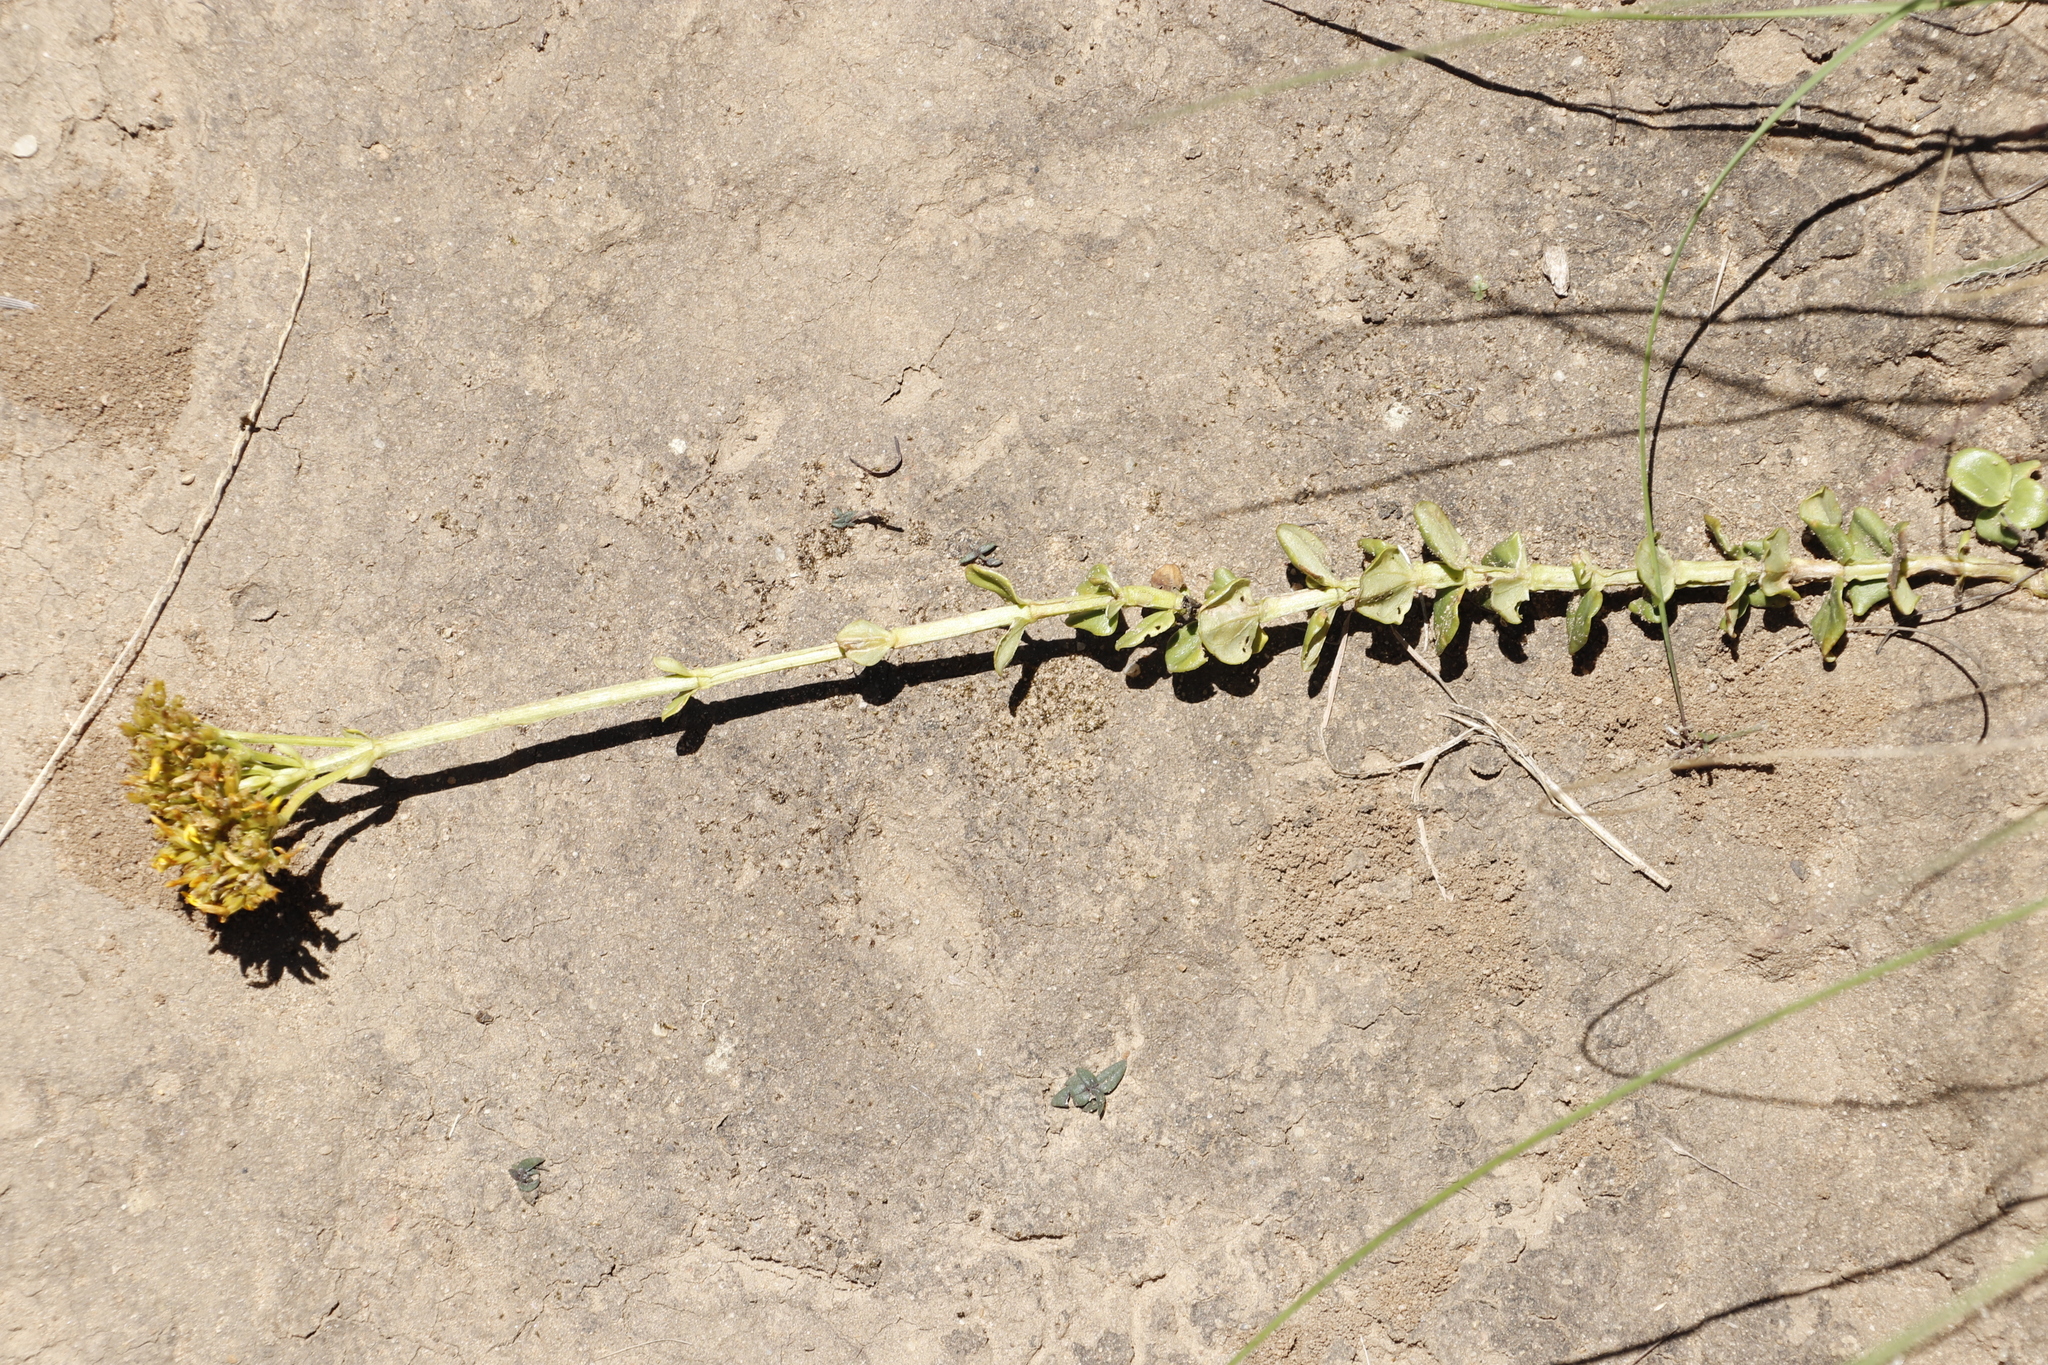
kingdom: Plantae
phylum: Tracheophyta
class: Magnoliopsida
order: Gentianales
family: Gentianaceae
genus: Sebaea
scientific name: Sebaea natalensis
